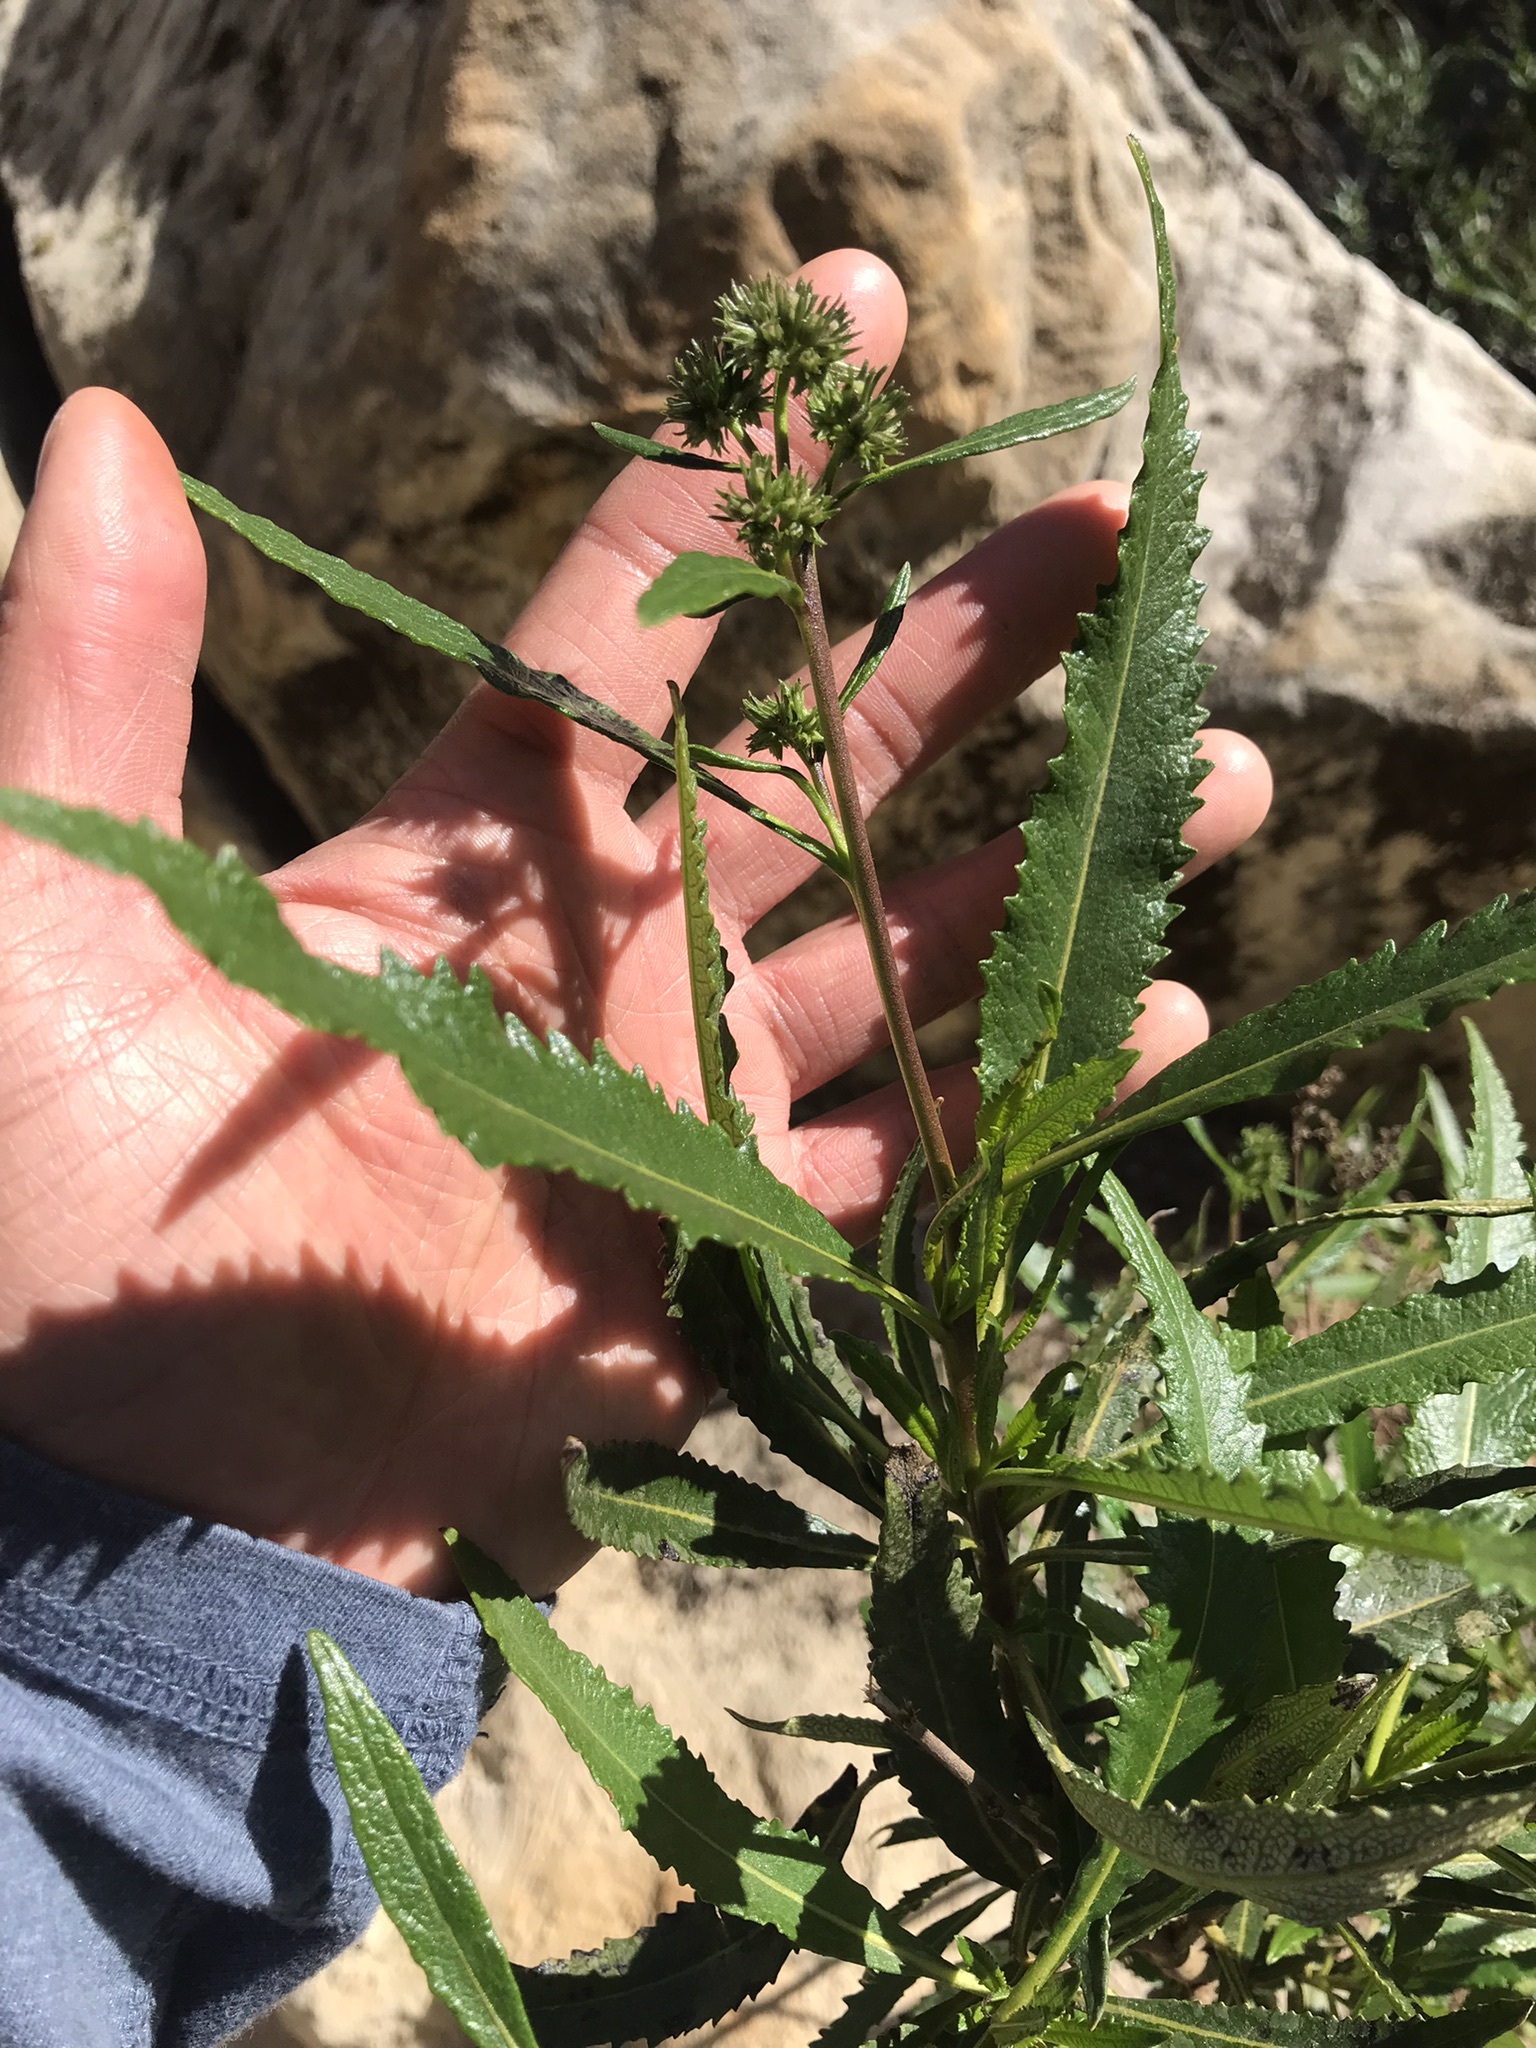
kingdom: Plantae
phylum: Tracheophyta
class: Magnoliopsida
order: Boraginales
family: Namaceae
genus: Eriodictyon
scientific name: Eriodictyon californicum
